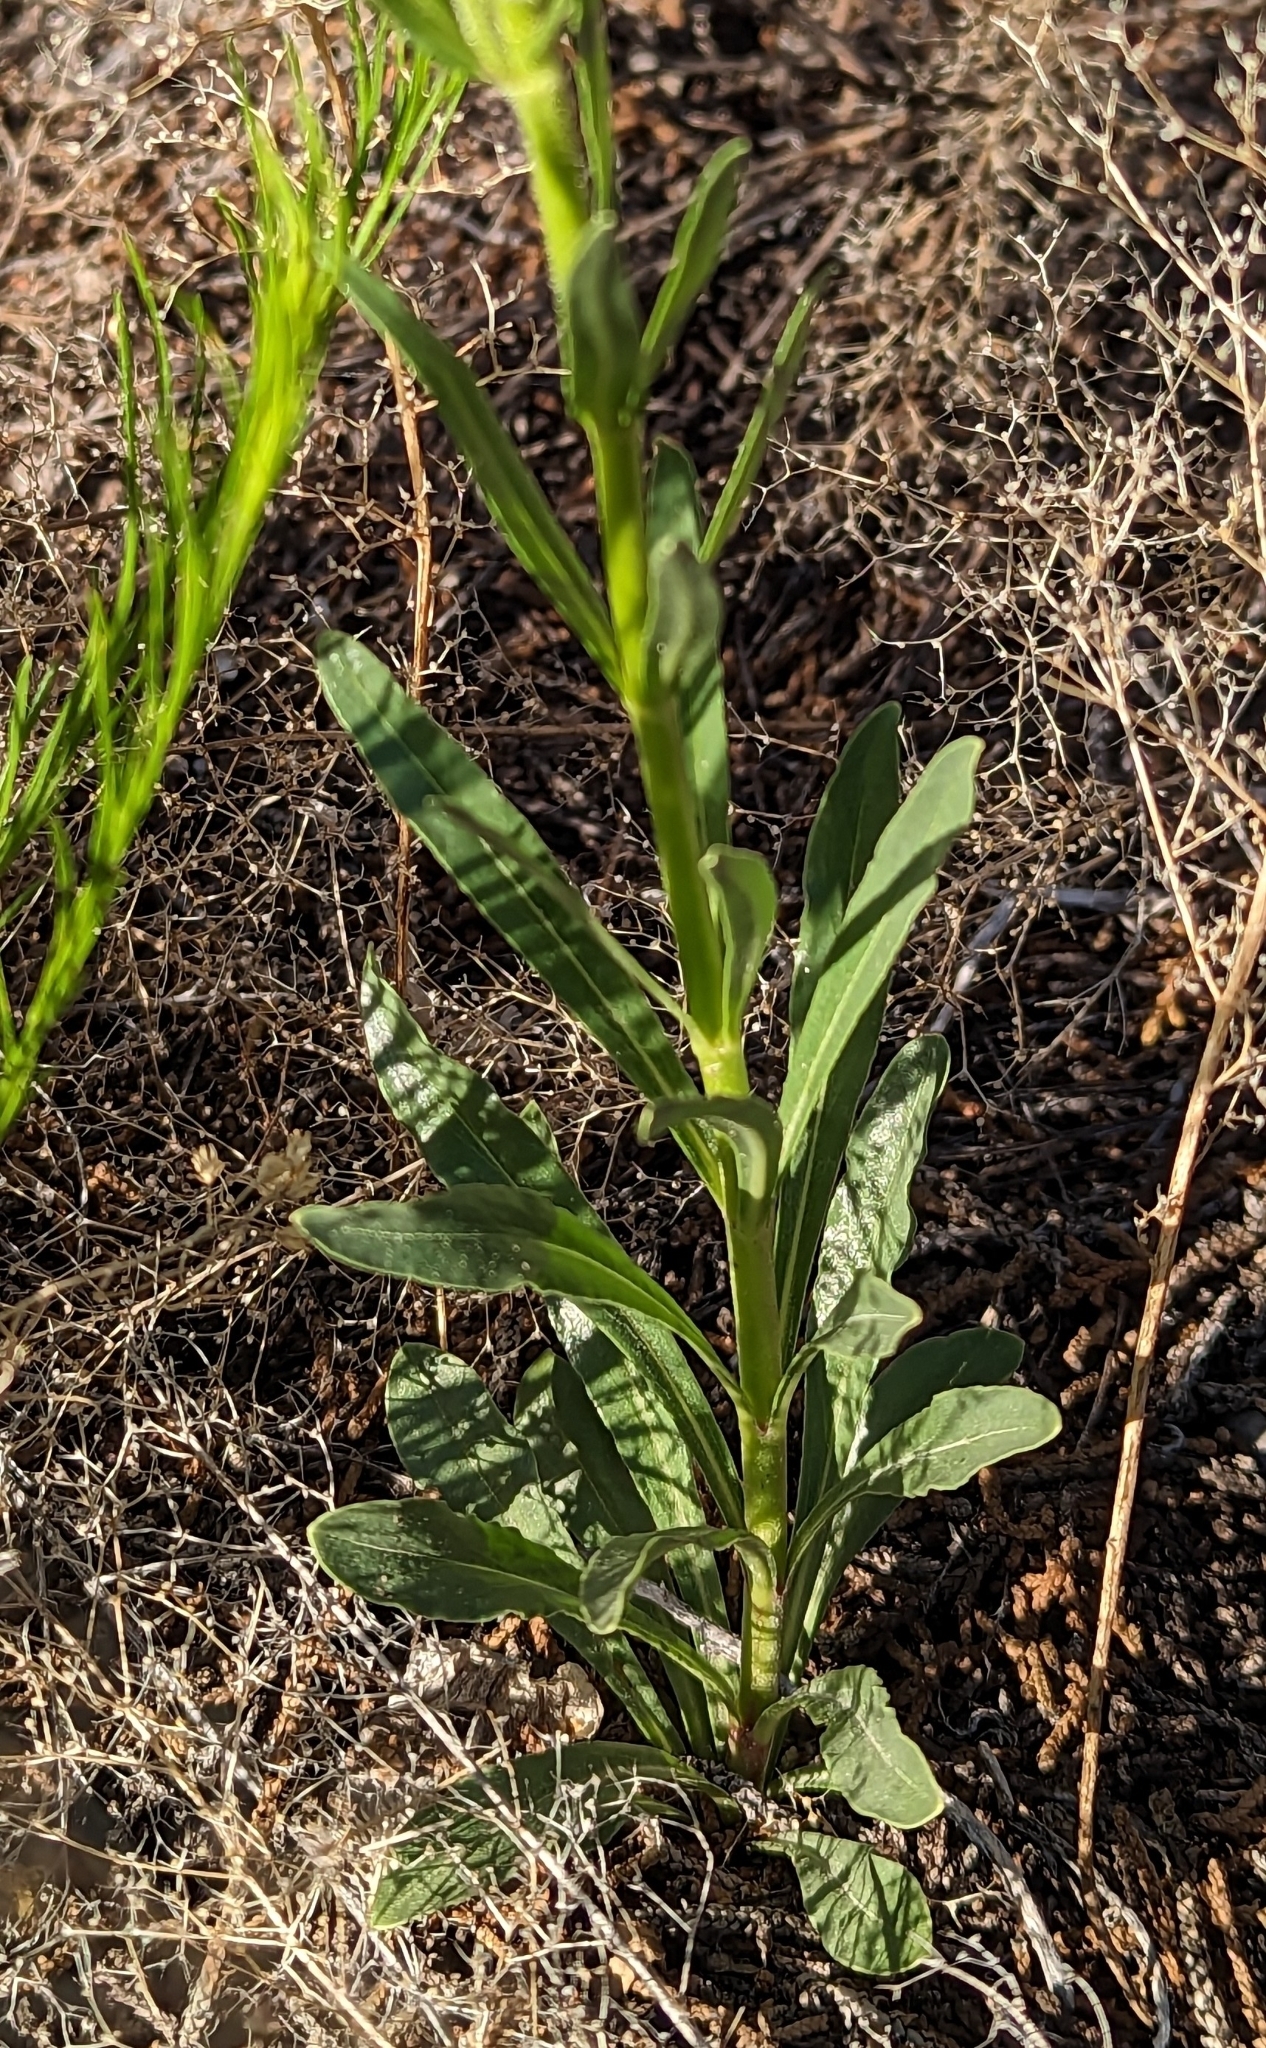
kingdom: Plantae
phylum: Tracheophyta
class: Magnoliopsida
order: Lamiales
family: Plantaginaceae
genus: Penstemon
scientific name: Penstemon ophianthus
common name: Arizona beardtongue
